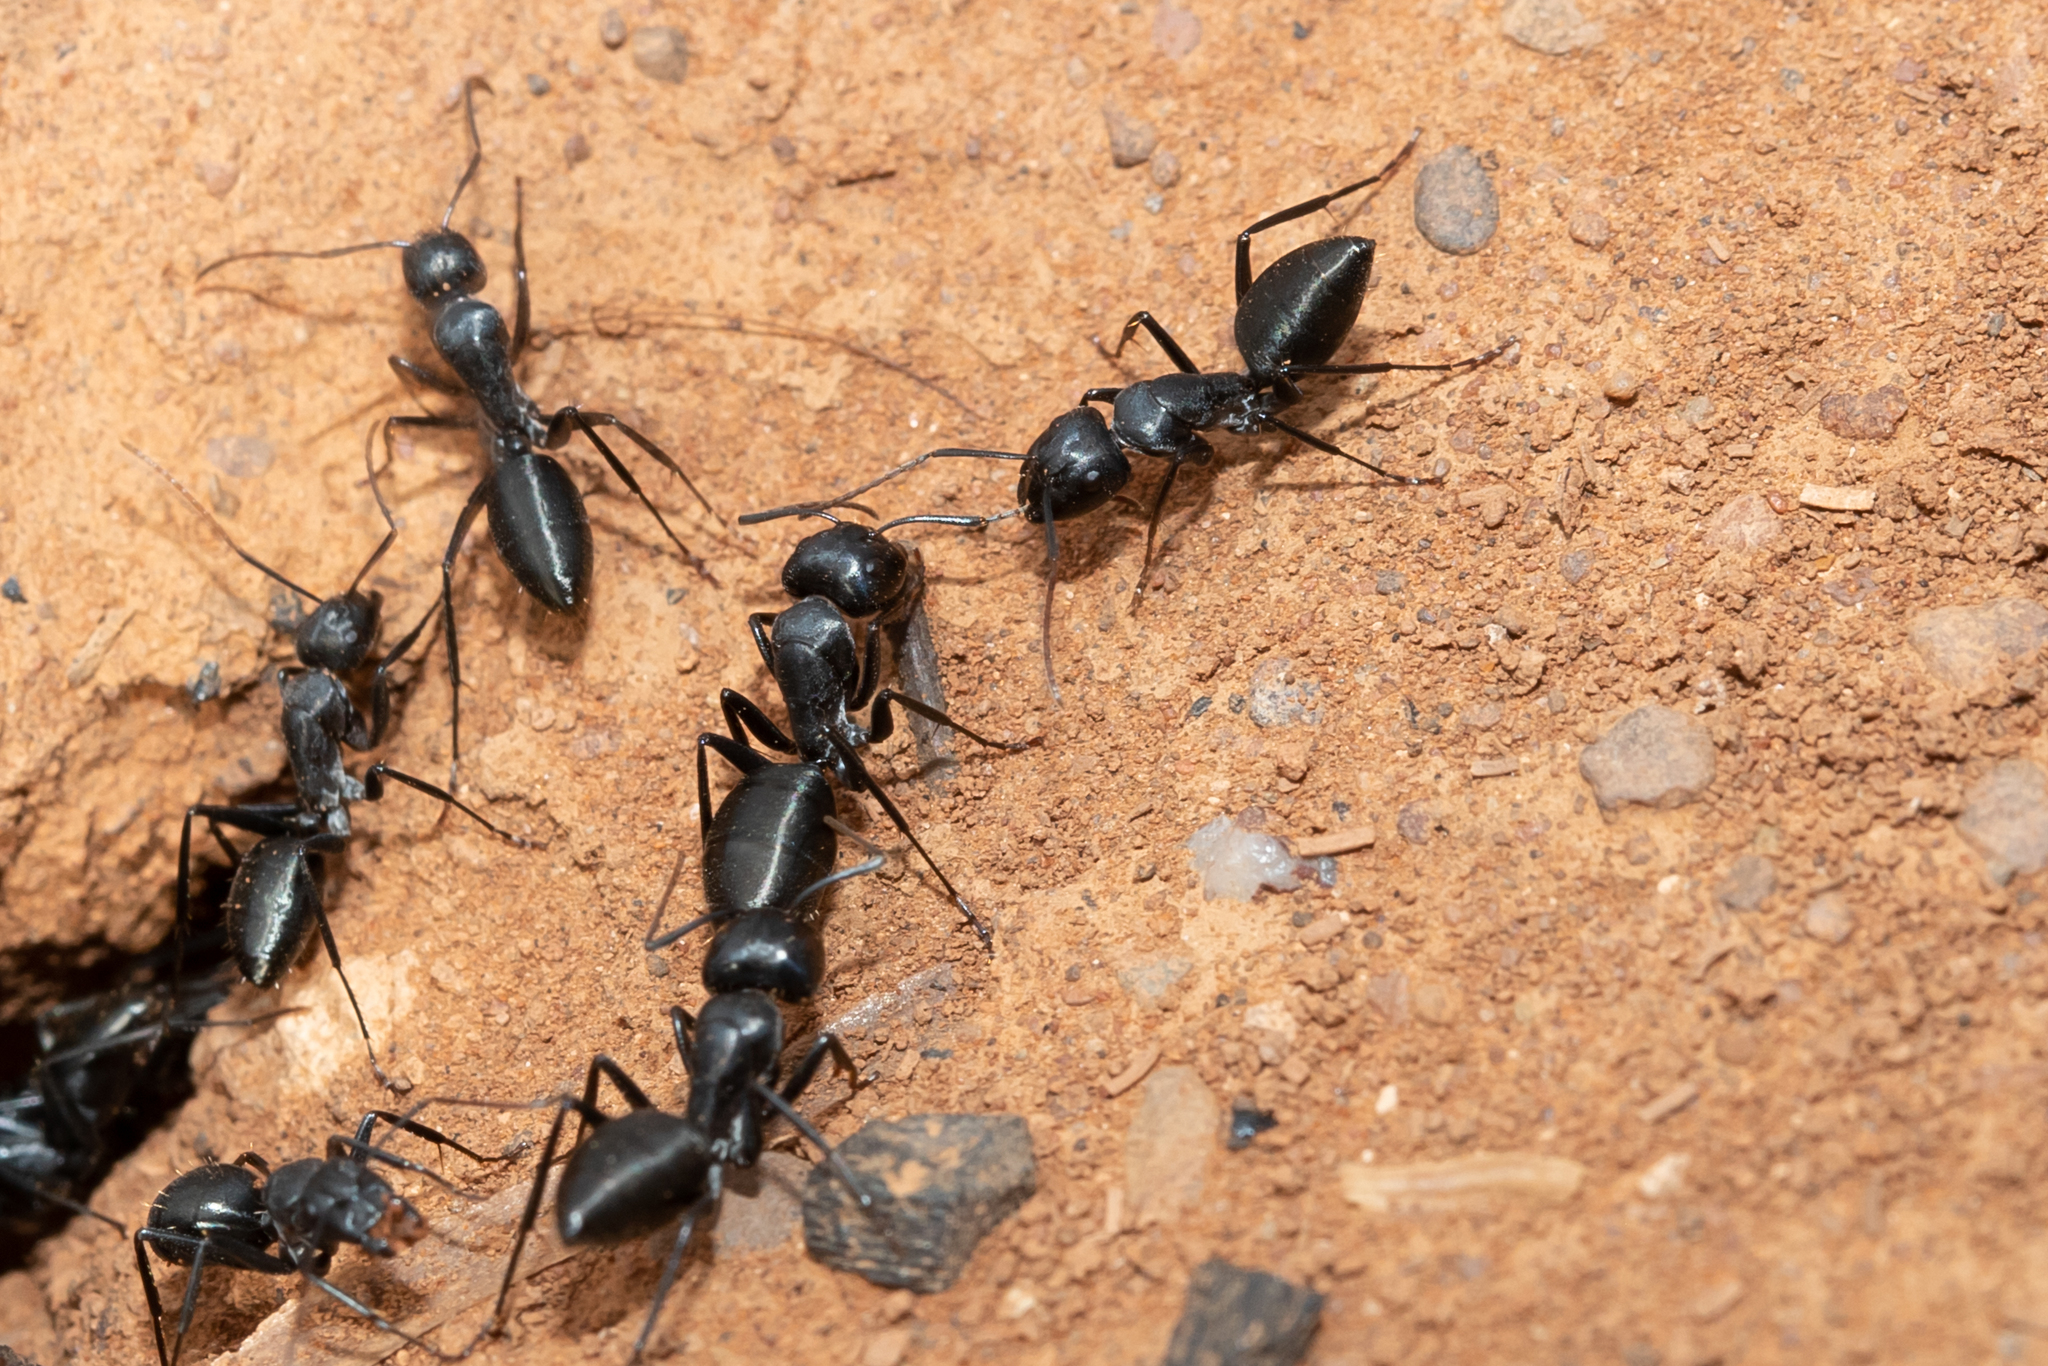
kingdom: Animalia
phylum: Arthropoda
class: Insecta
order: Hymenoptera
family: Formicidae
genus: Camponotus
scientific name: Camponotus cinereus
